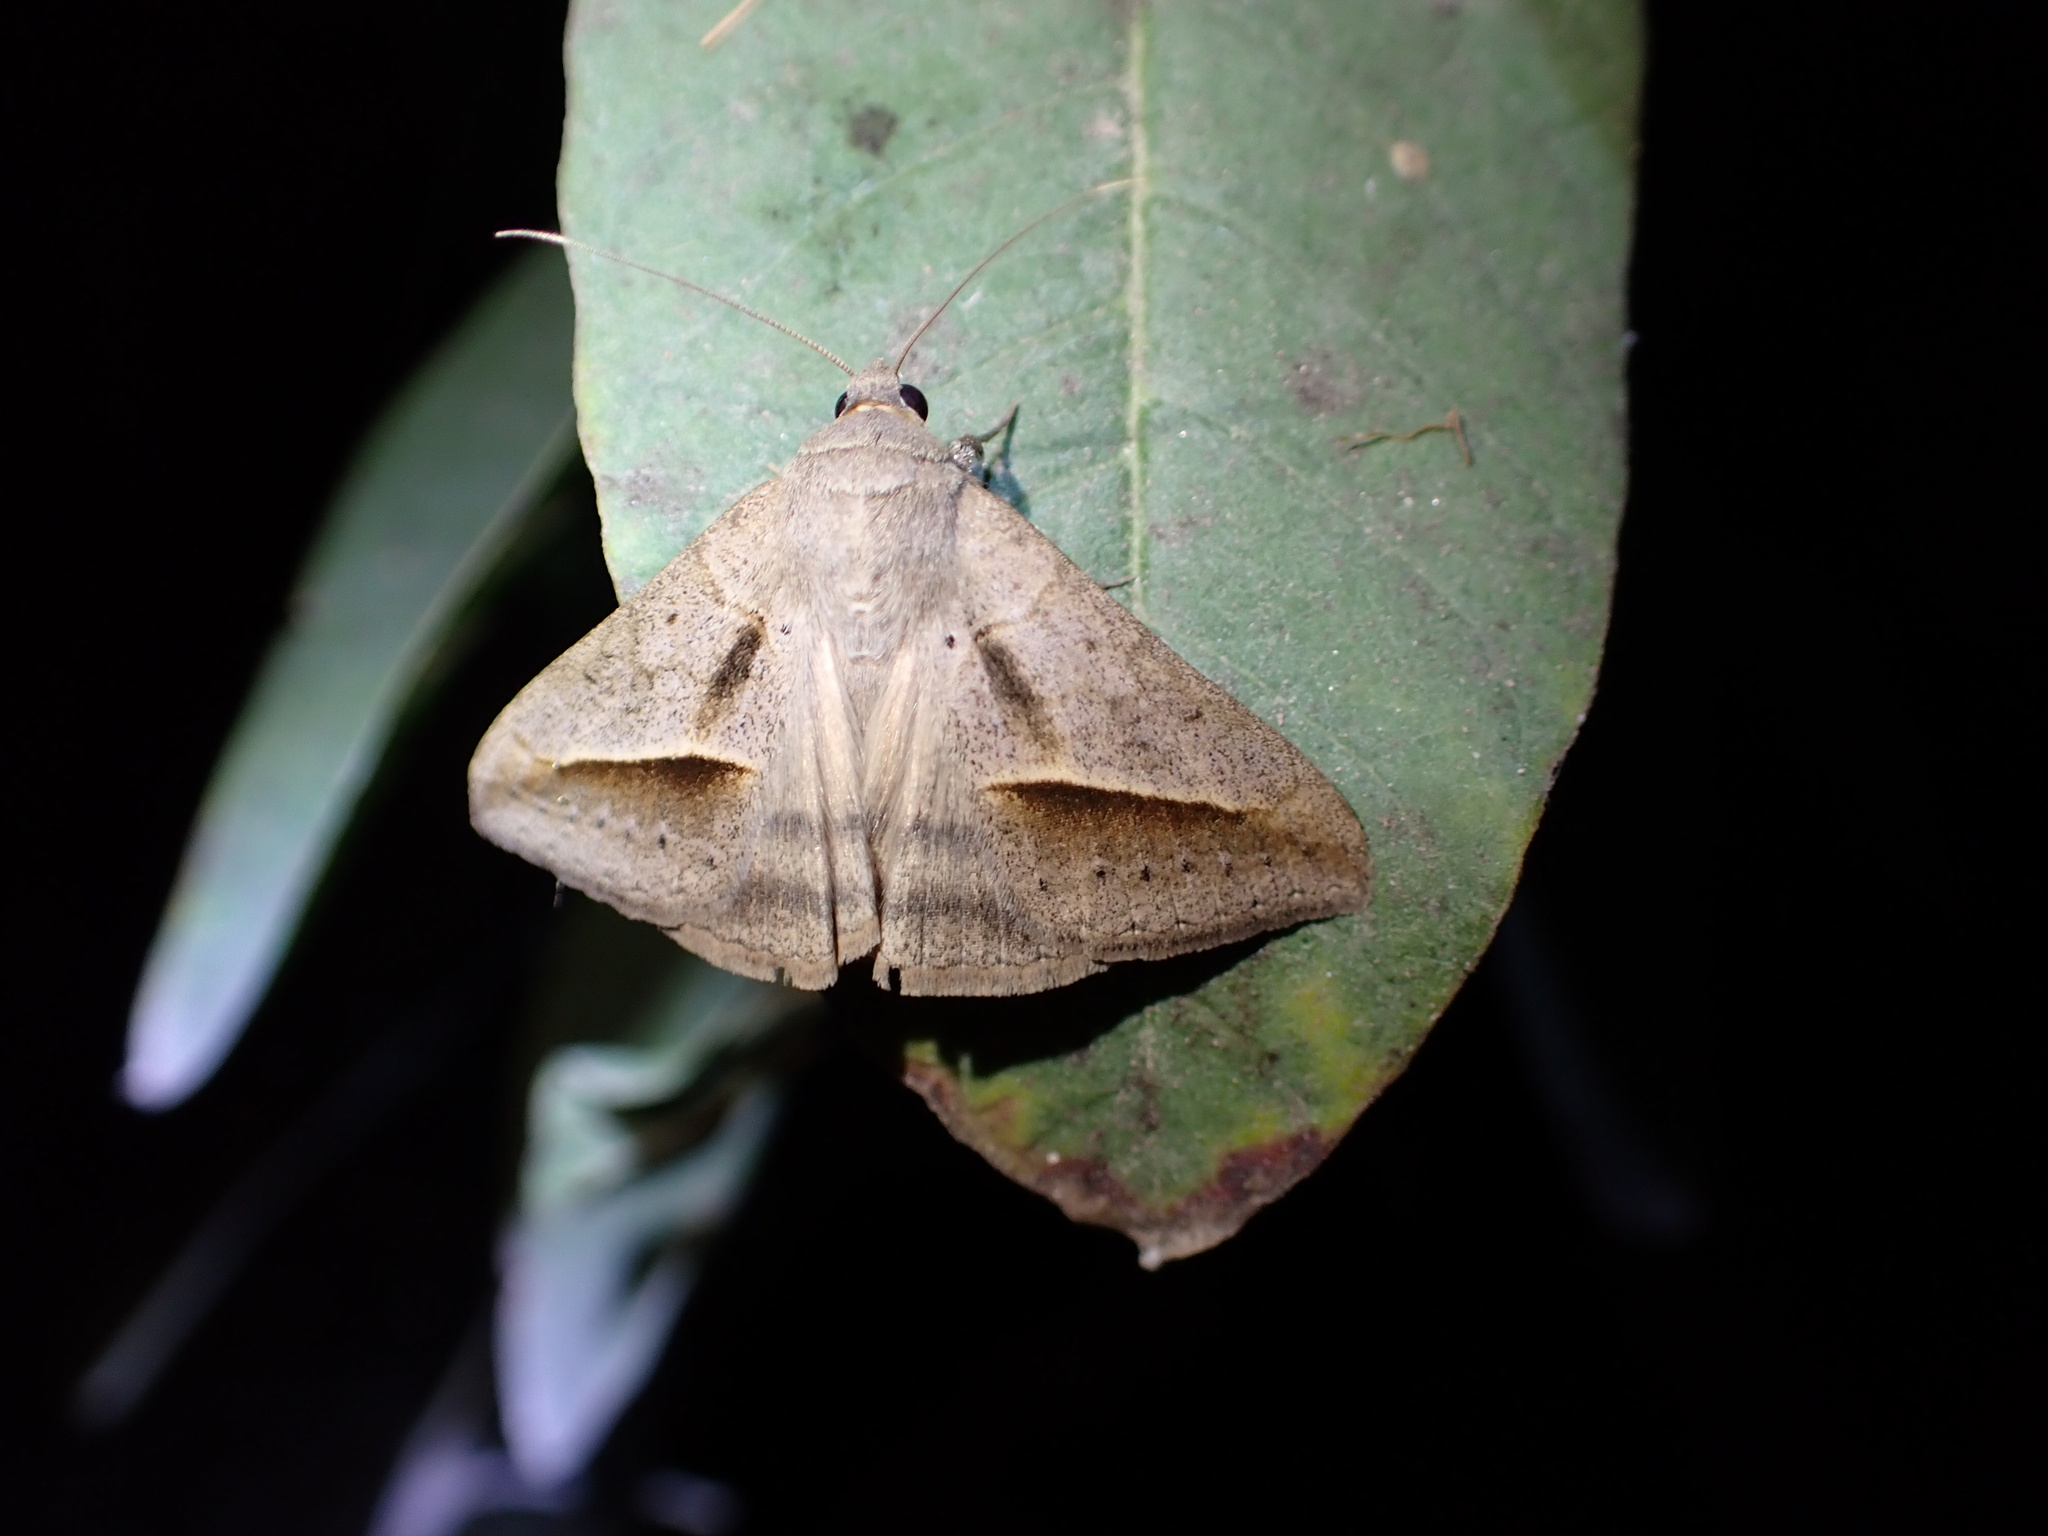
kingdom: Animalia
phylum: Arthropoda
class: Insecta
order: Lepidoptera
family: Erebidae
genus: Mocis
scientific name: Mocis frugalis
